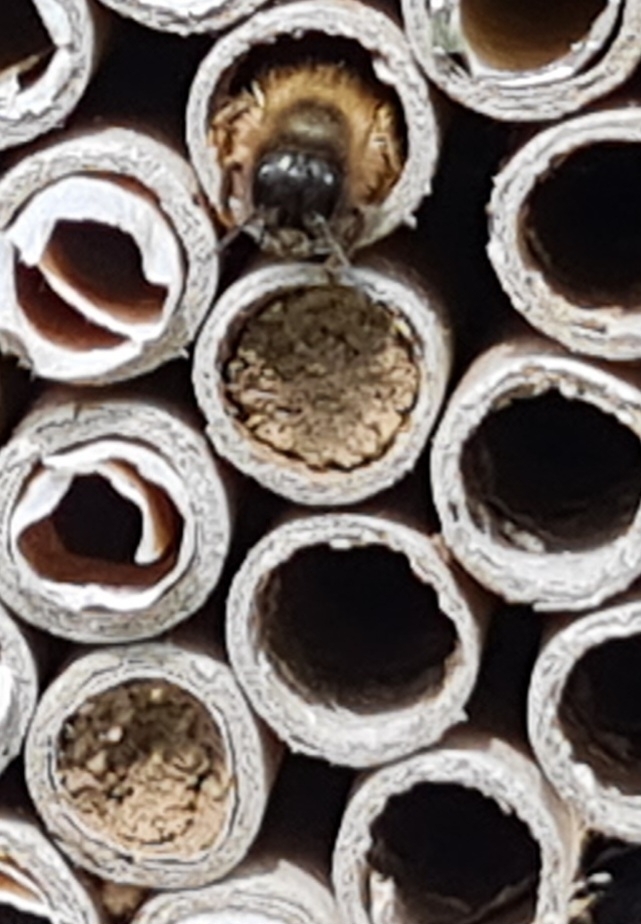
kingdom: Animalia
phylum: Arthropoda
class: Insecta
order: Hymenoptera
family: Megachilidae
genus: Osmia
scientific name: Osmia bicornis
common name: Red mason bee
